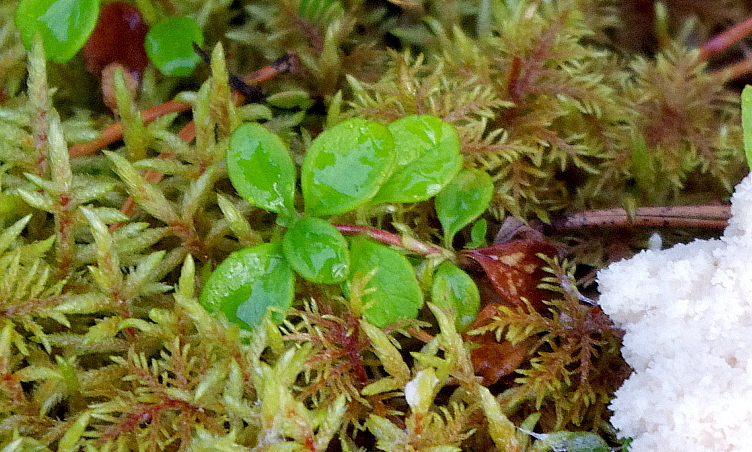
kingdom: Plantae
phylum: Tracheophyta
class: Magnoliopsida
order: Dipsacales
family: Caprifoliaceae
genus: Linnaea
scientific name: Linnaea borealis
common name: Twinflower
